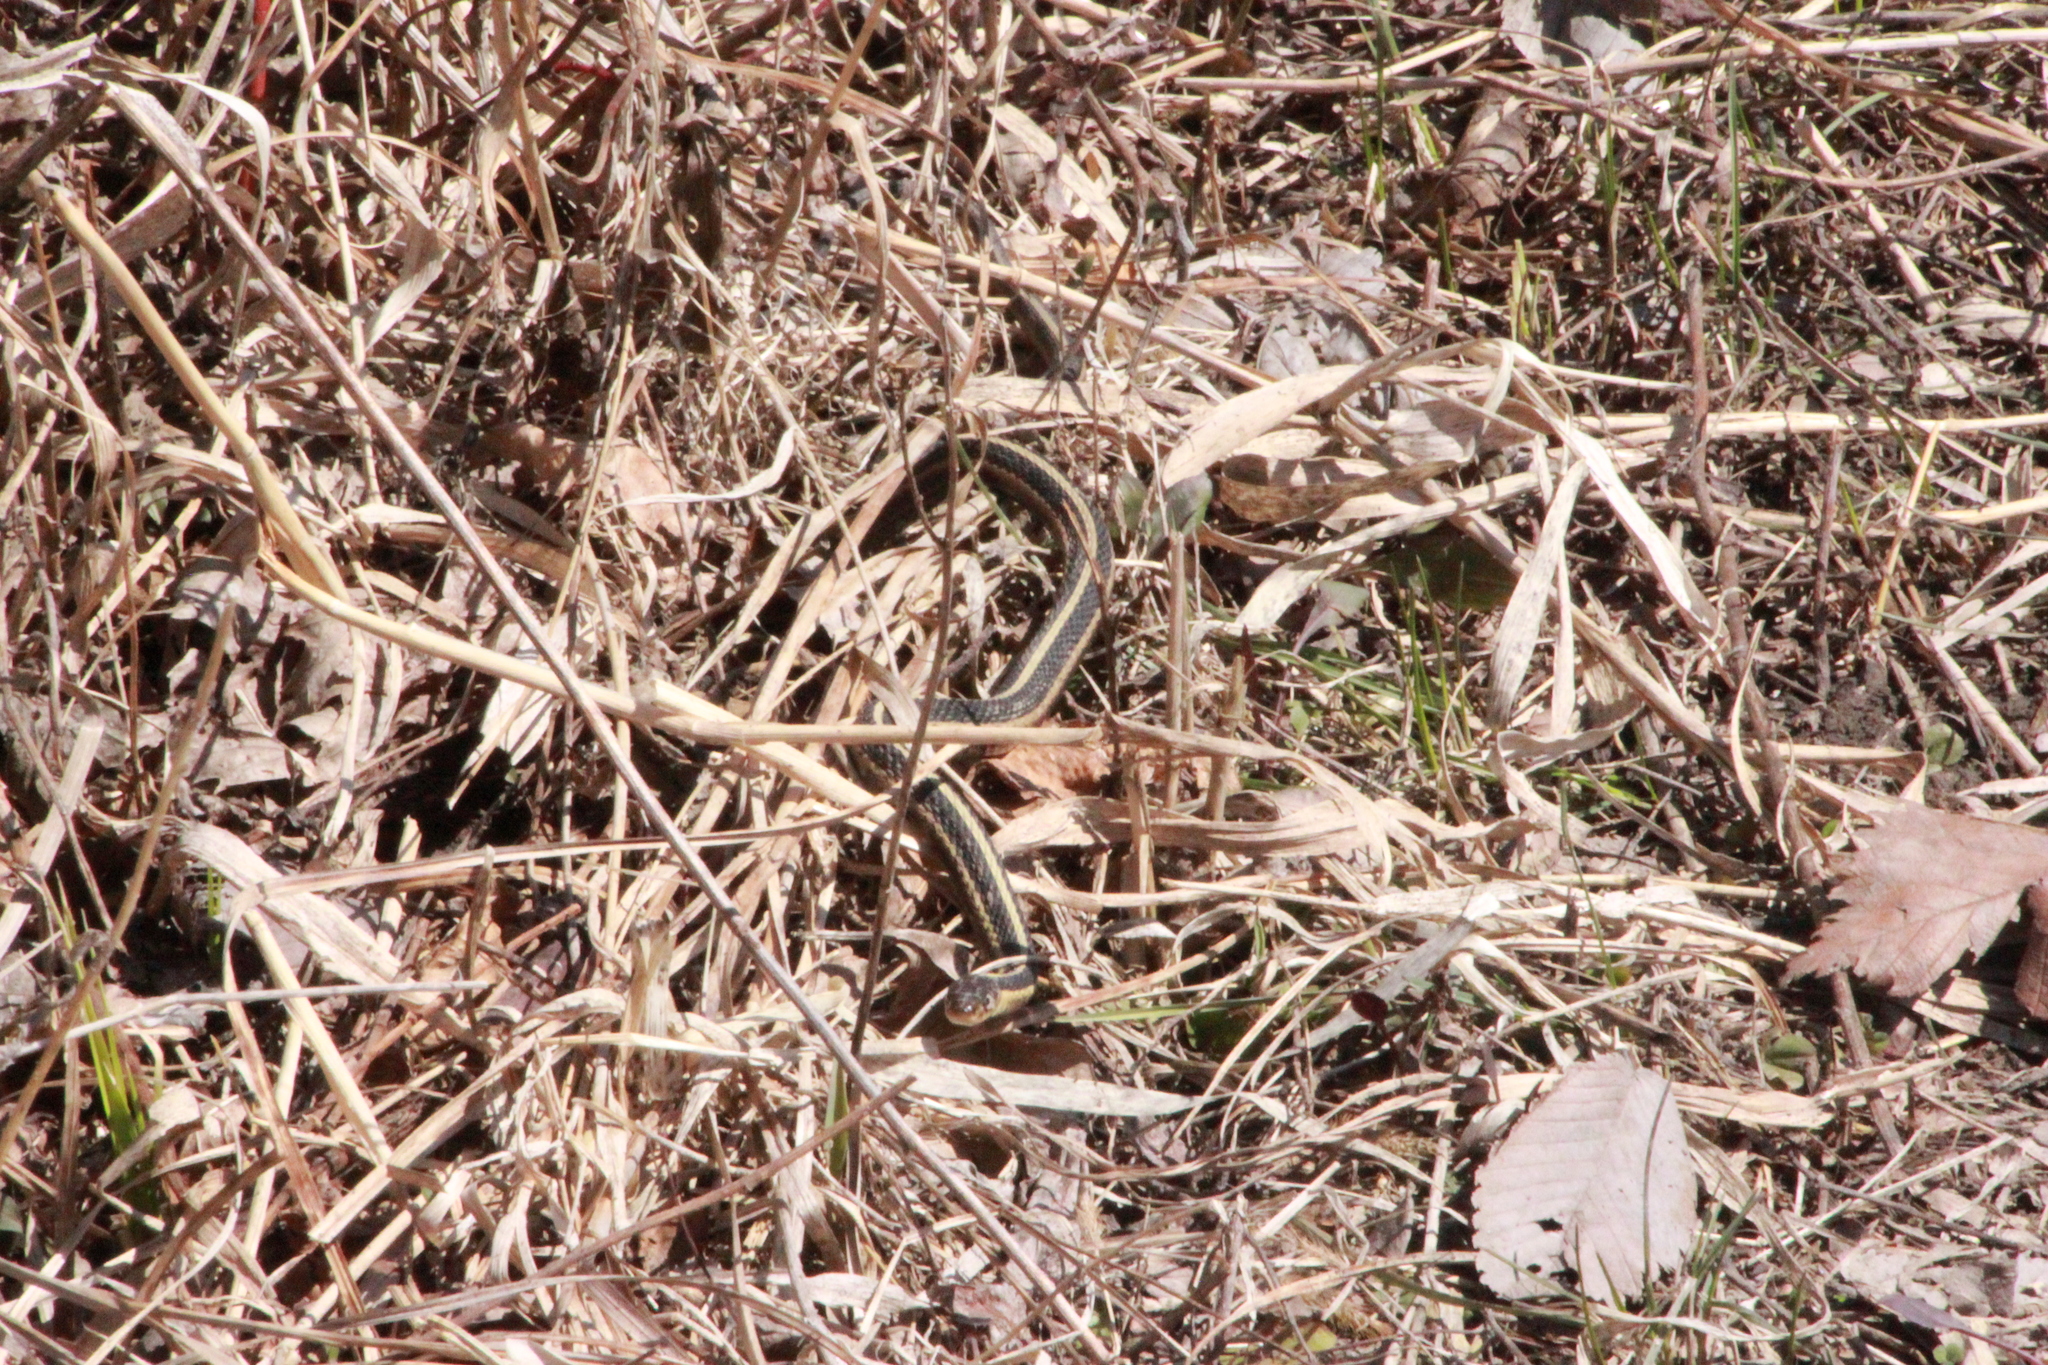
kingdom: Animalia
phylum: Chordata
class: Squamata
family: Colubridae
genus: Thamnophis
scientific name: Thamnophis sirtalis
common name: Common garter snake
